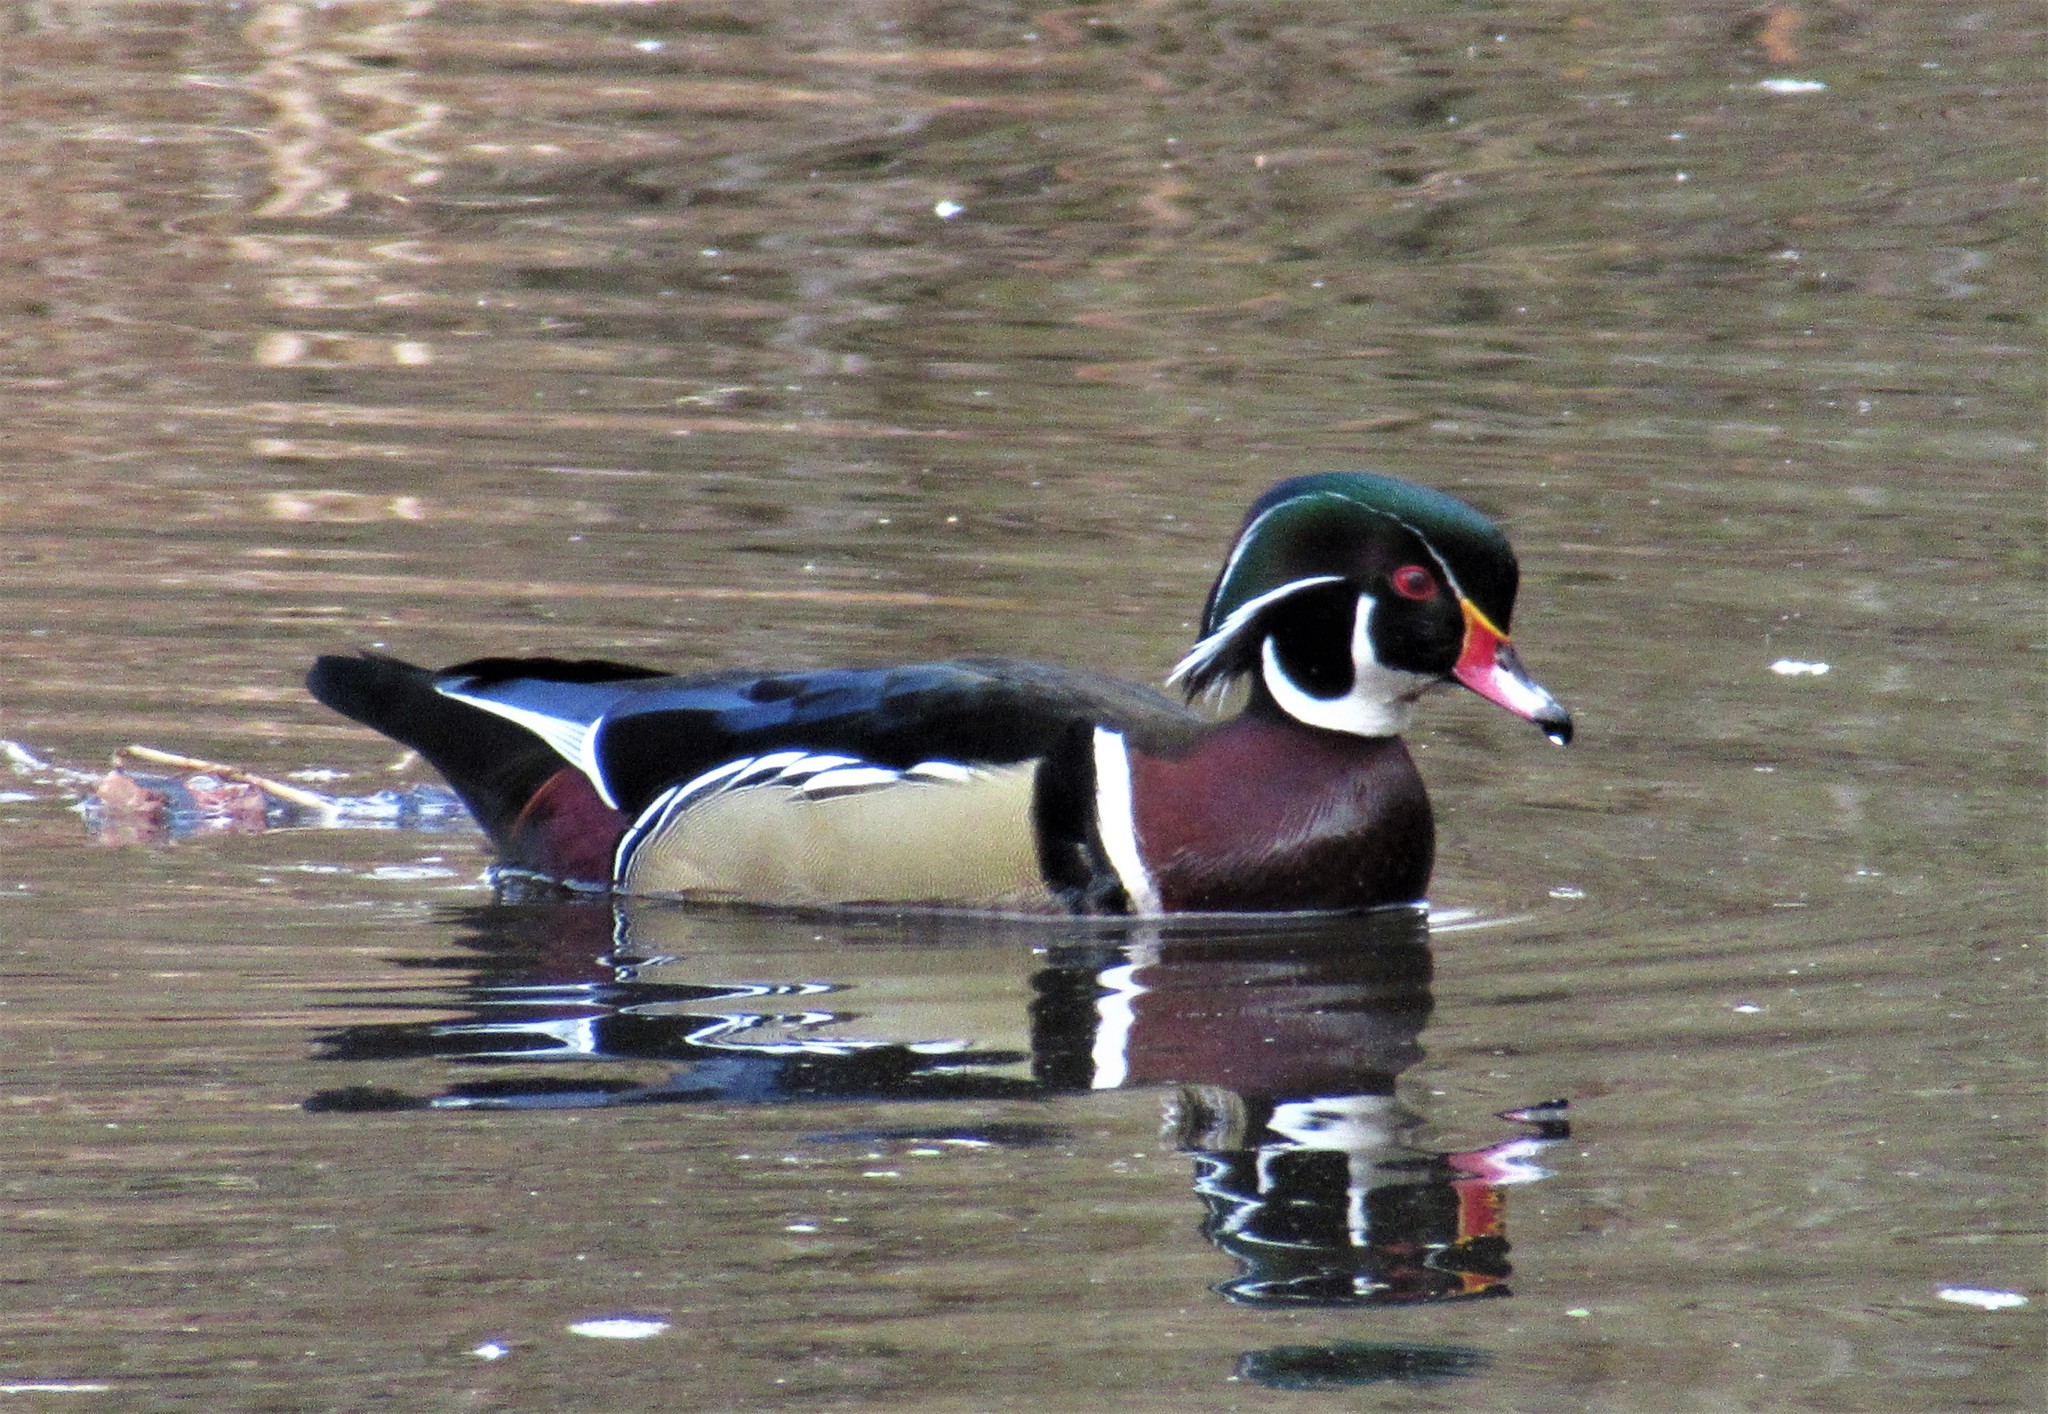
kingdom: Animalia
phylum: Chordata
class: Aves
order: Anseriformes
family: Anatidae
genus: Aix
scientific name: Aix sponsa
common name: Wood duck
